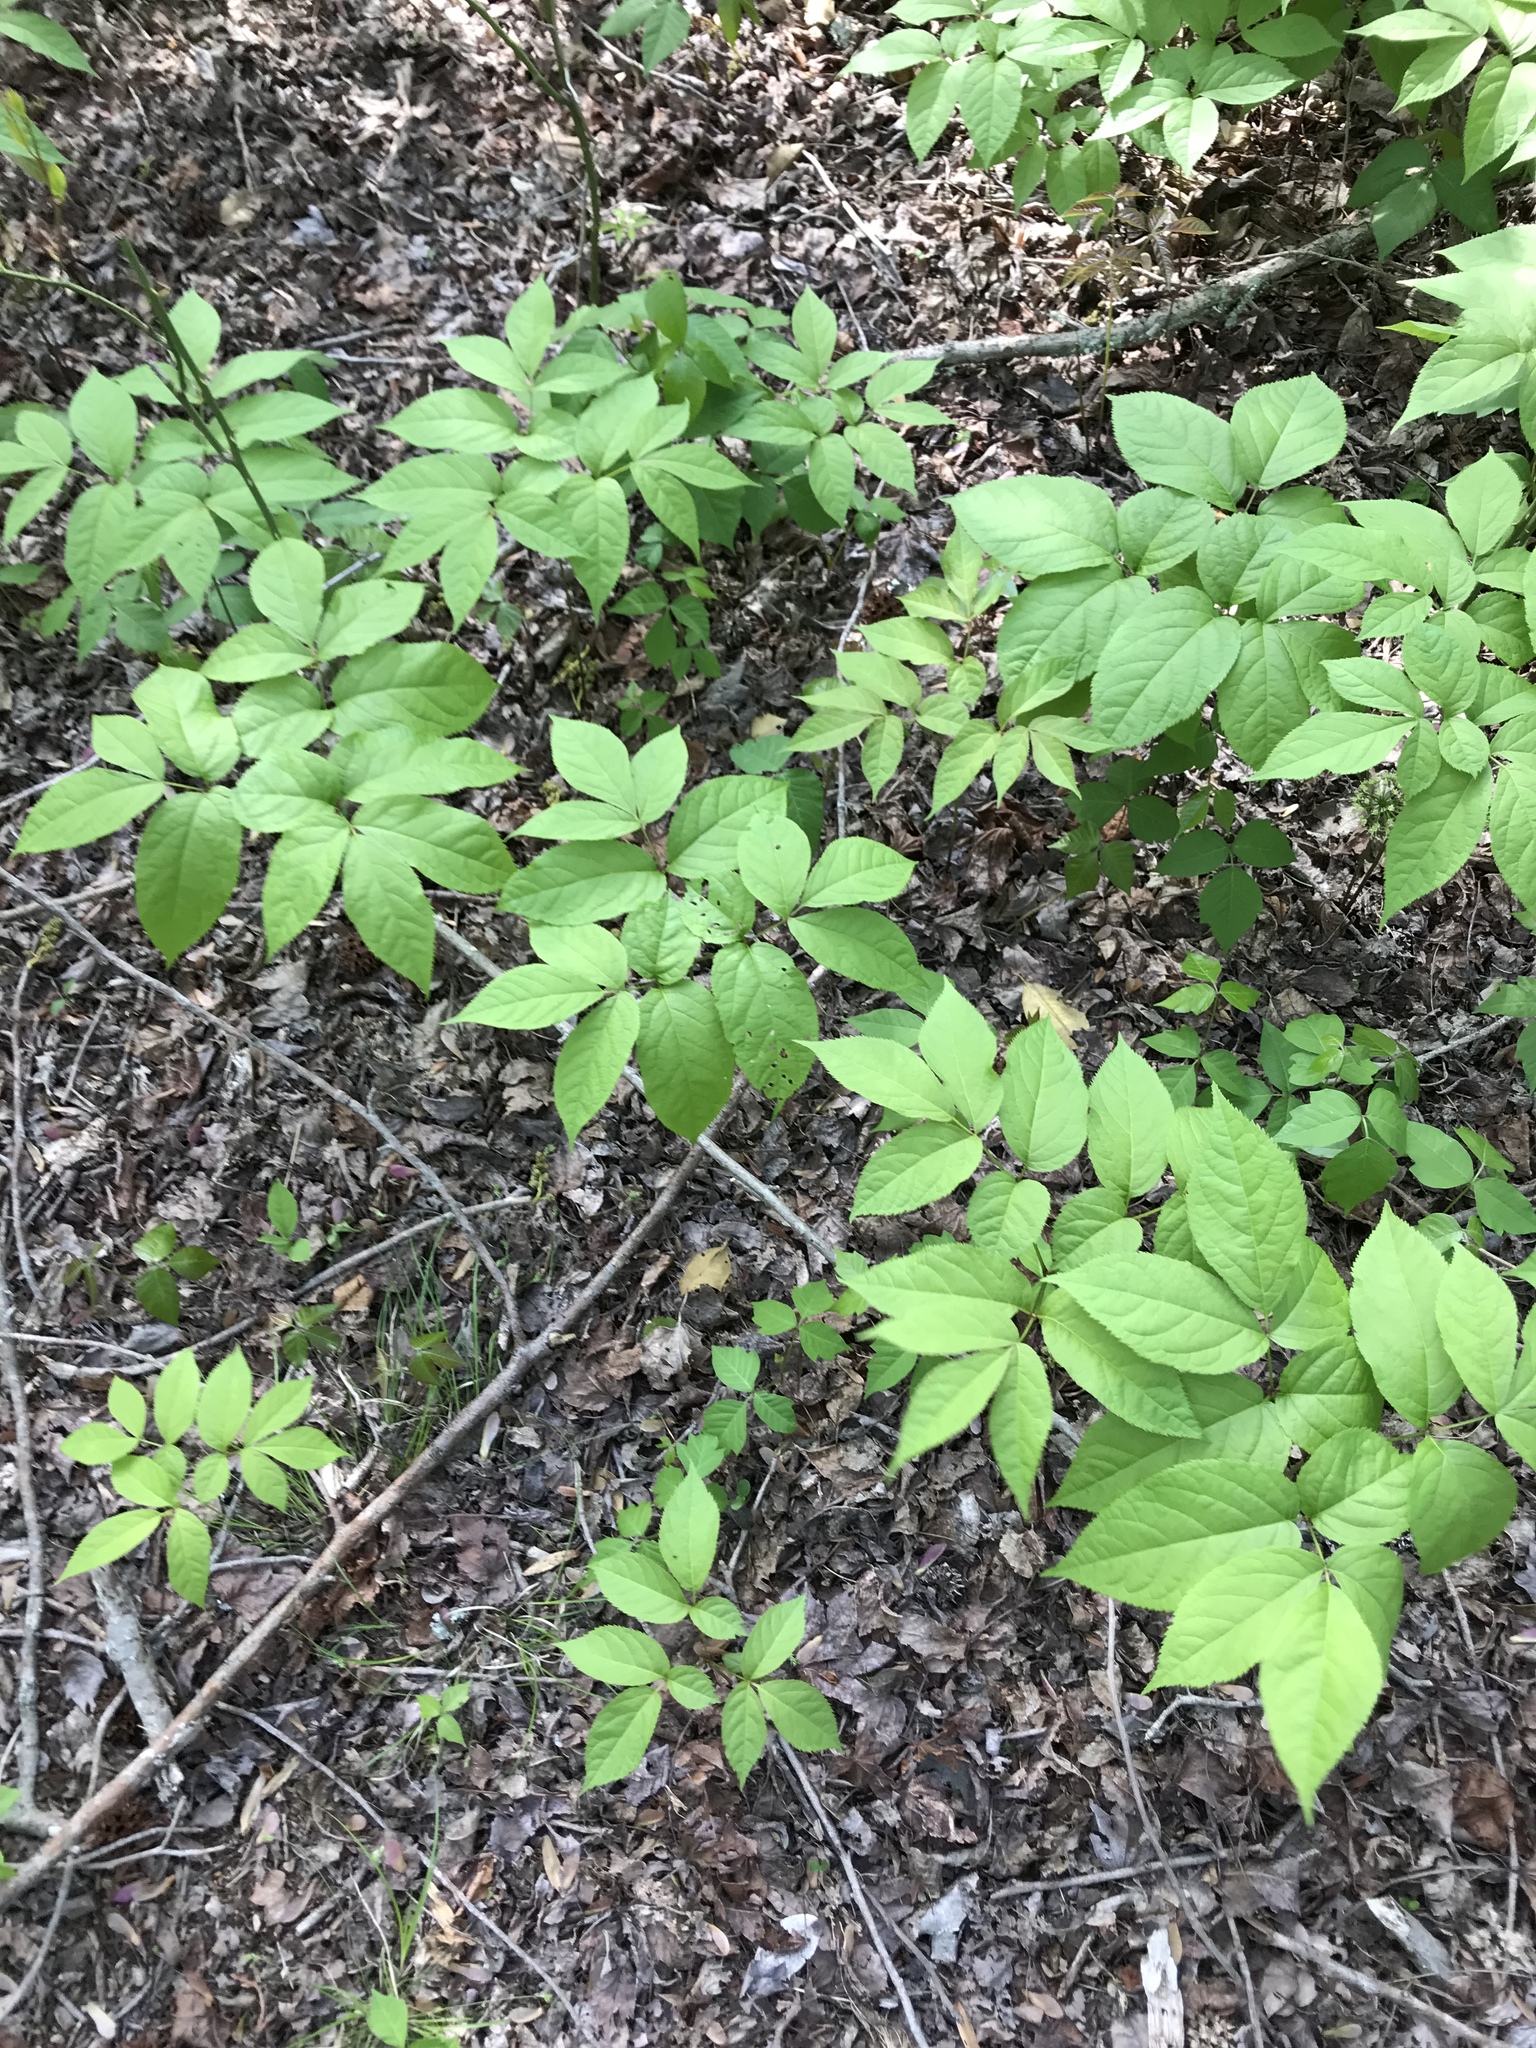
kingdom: Plantae
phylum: Tracheophyta
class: Magnoliopsida
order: Apiales
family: Araliaceae
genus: Aralia
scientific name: Aralia nudicaulis
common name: Wild sarsaparilla
